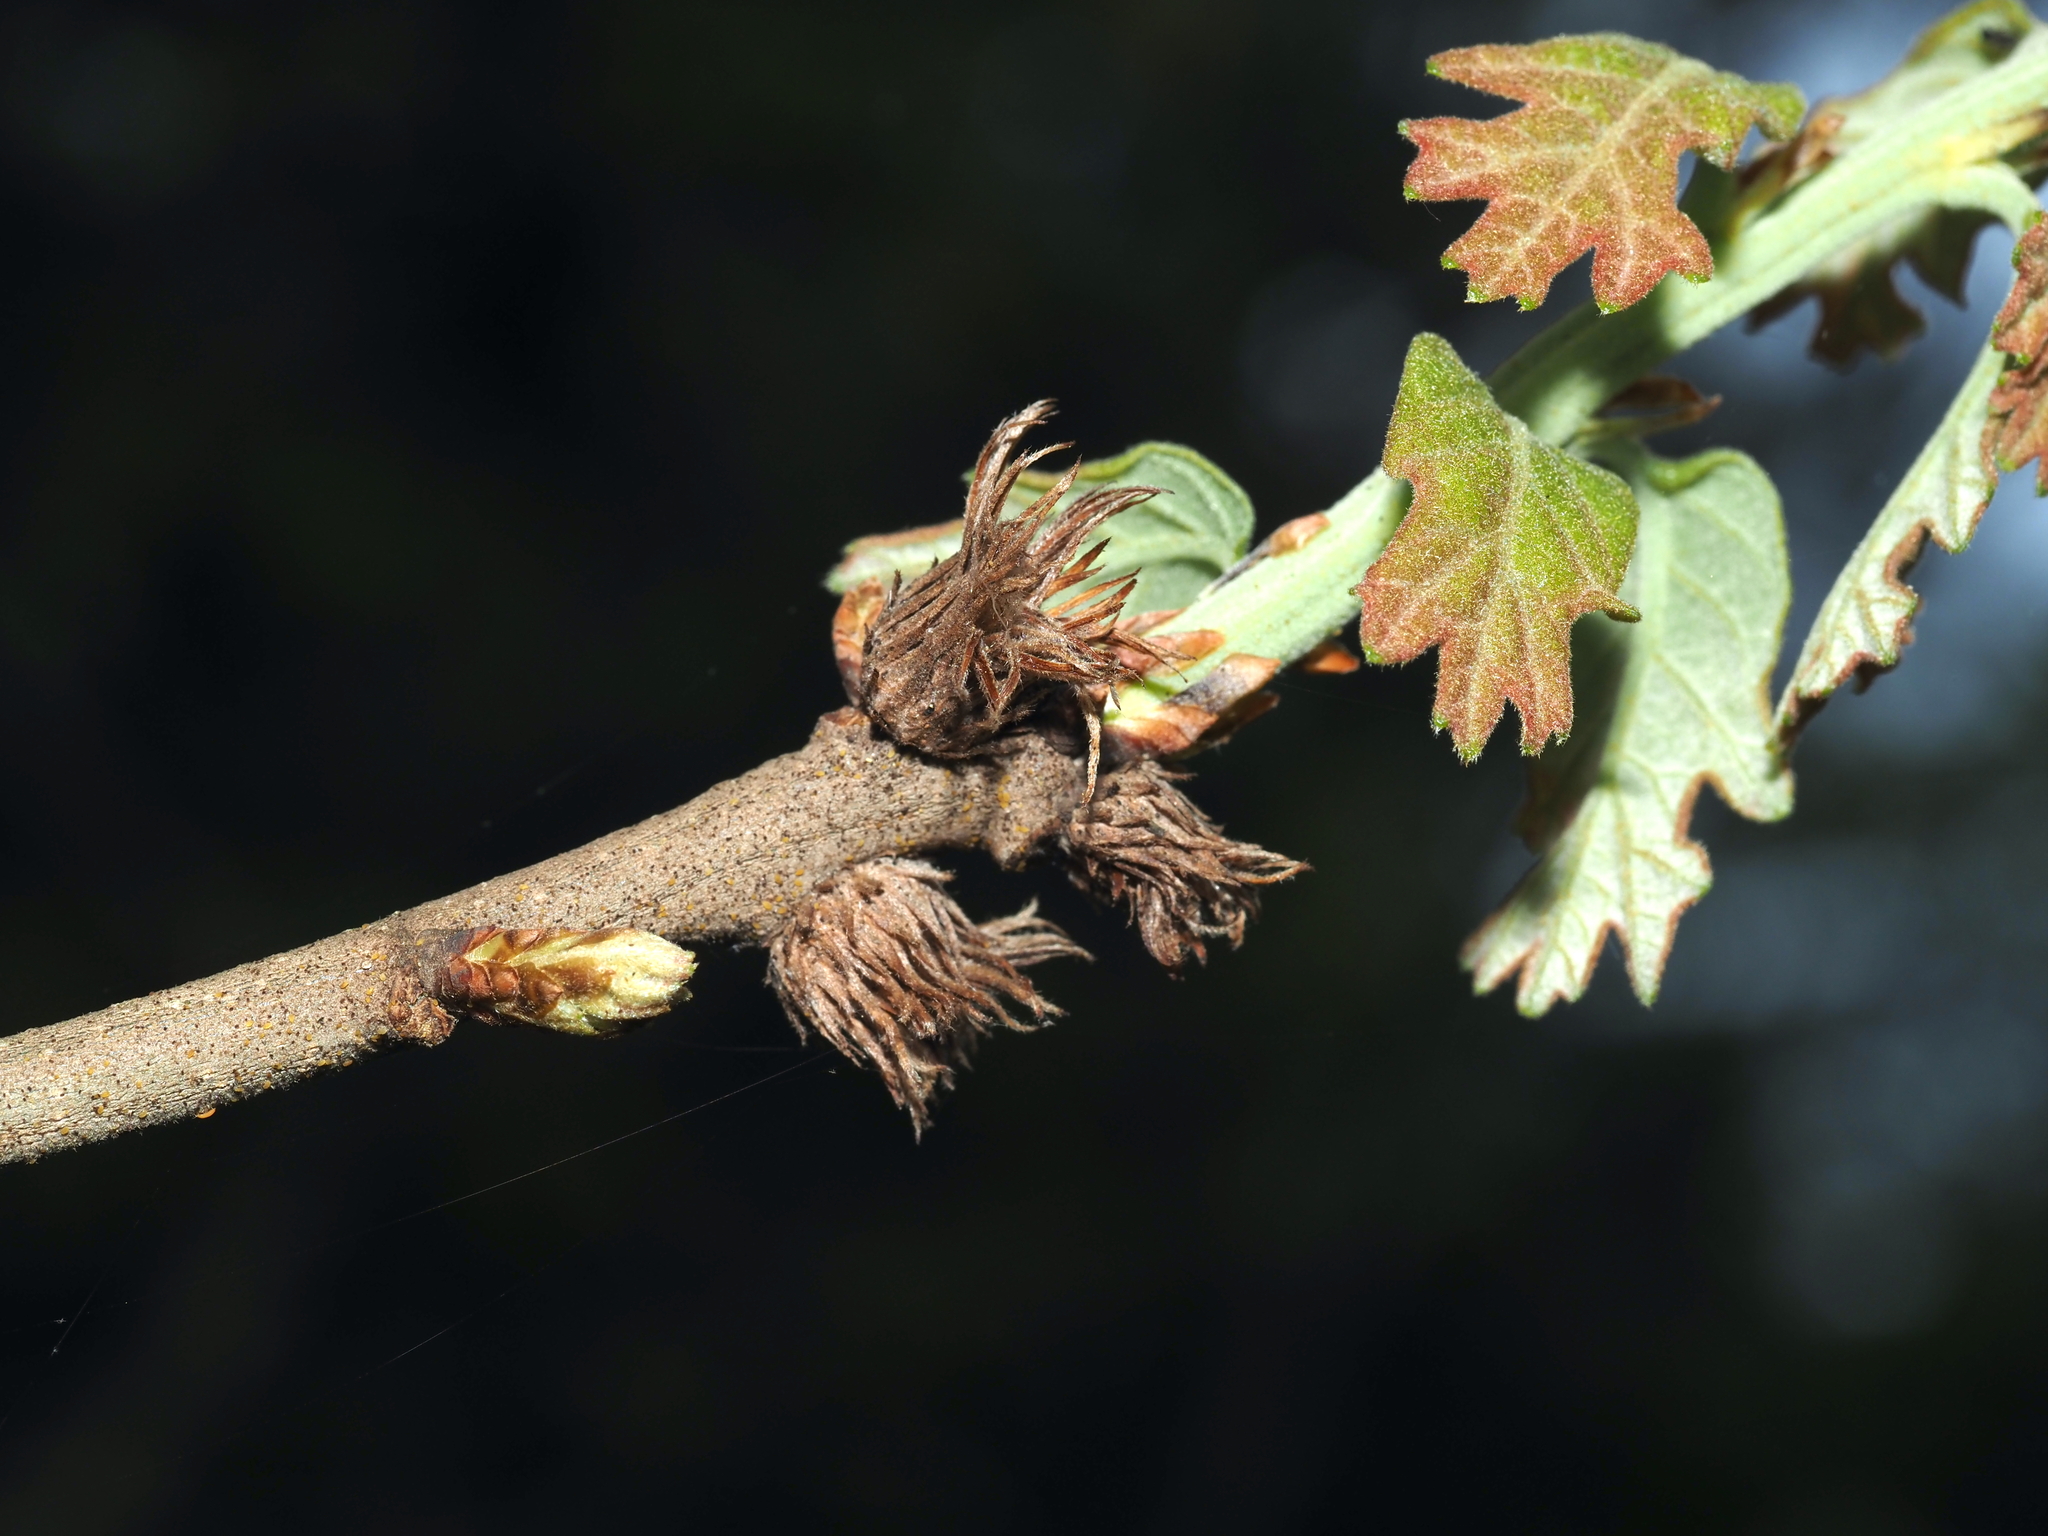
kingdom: Animalia
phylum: Arthropoda
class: Insecta
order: Hymenoptera
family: Cynipidae
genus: Andricus
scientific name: Andricus
